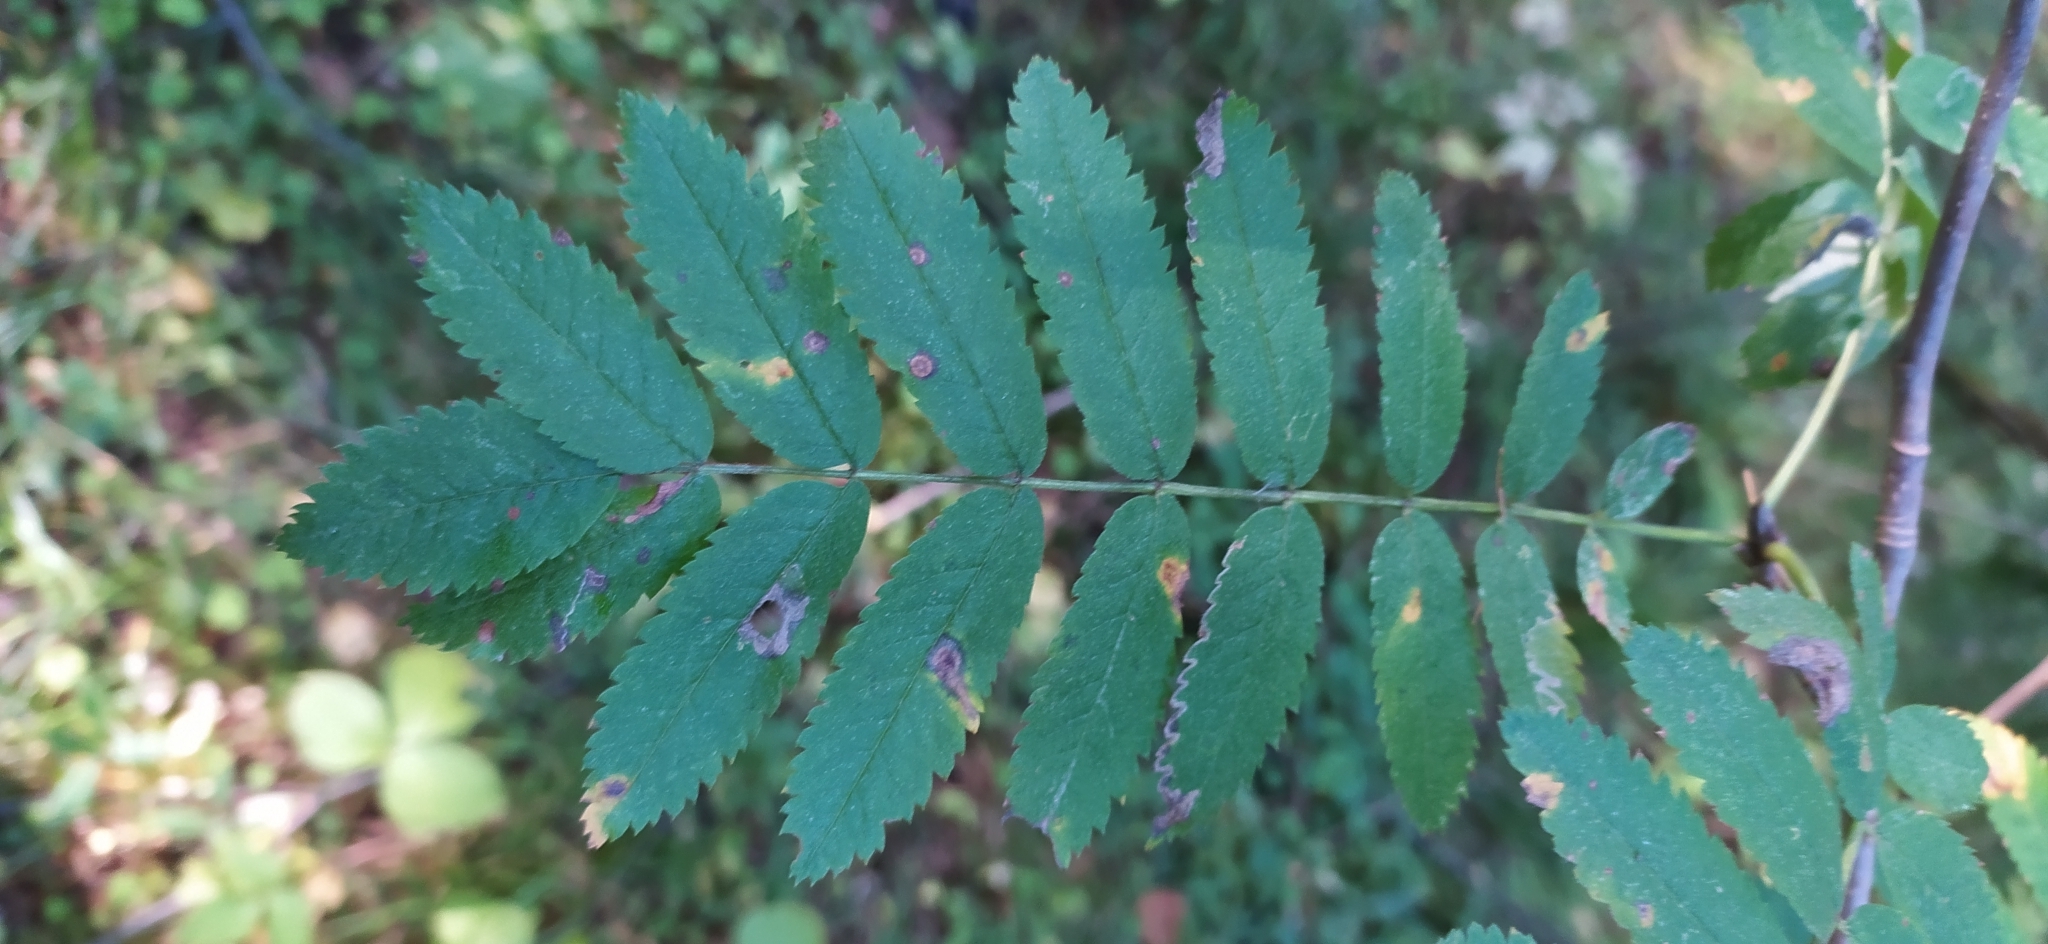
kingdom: Plantae
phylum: Tracheophyta
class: Magnoliopsida
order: Rosales
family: Rosaceae
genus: Sorbus
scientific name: Sorbus aucuparia
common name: Rowan
